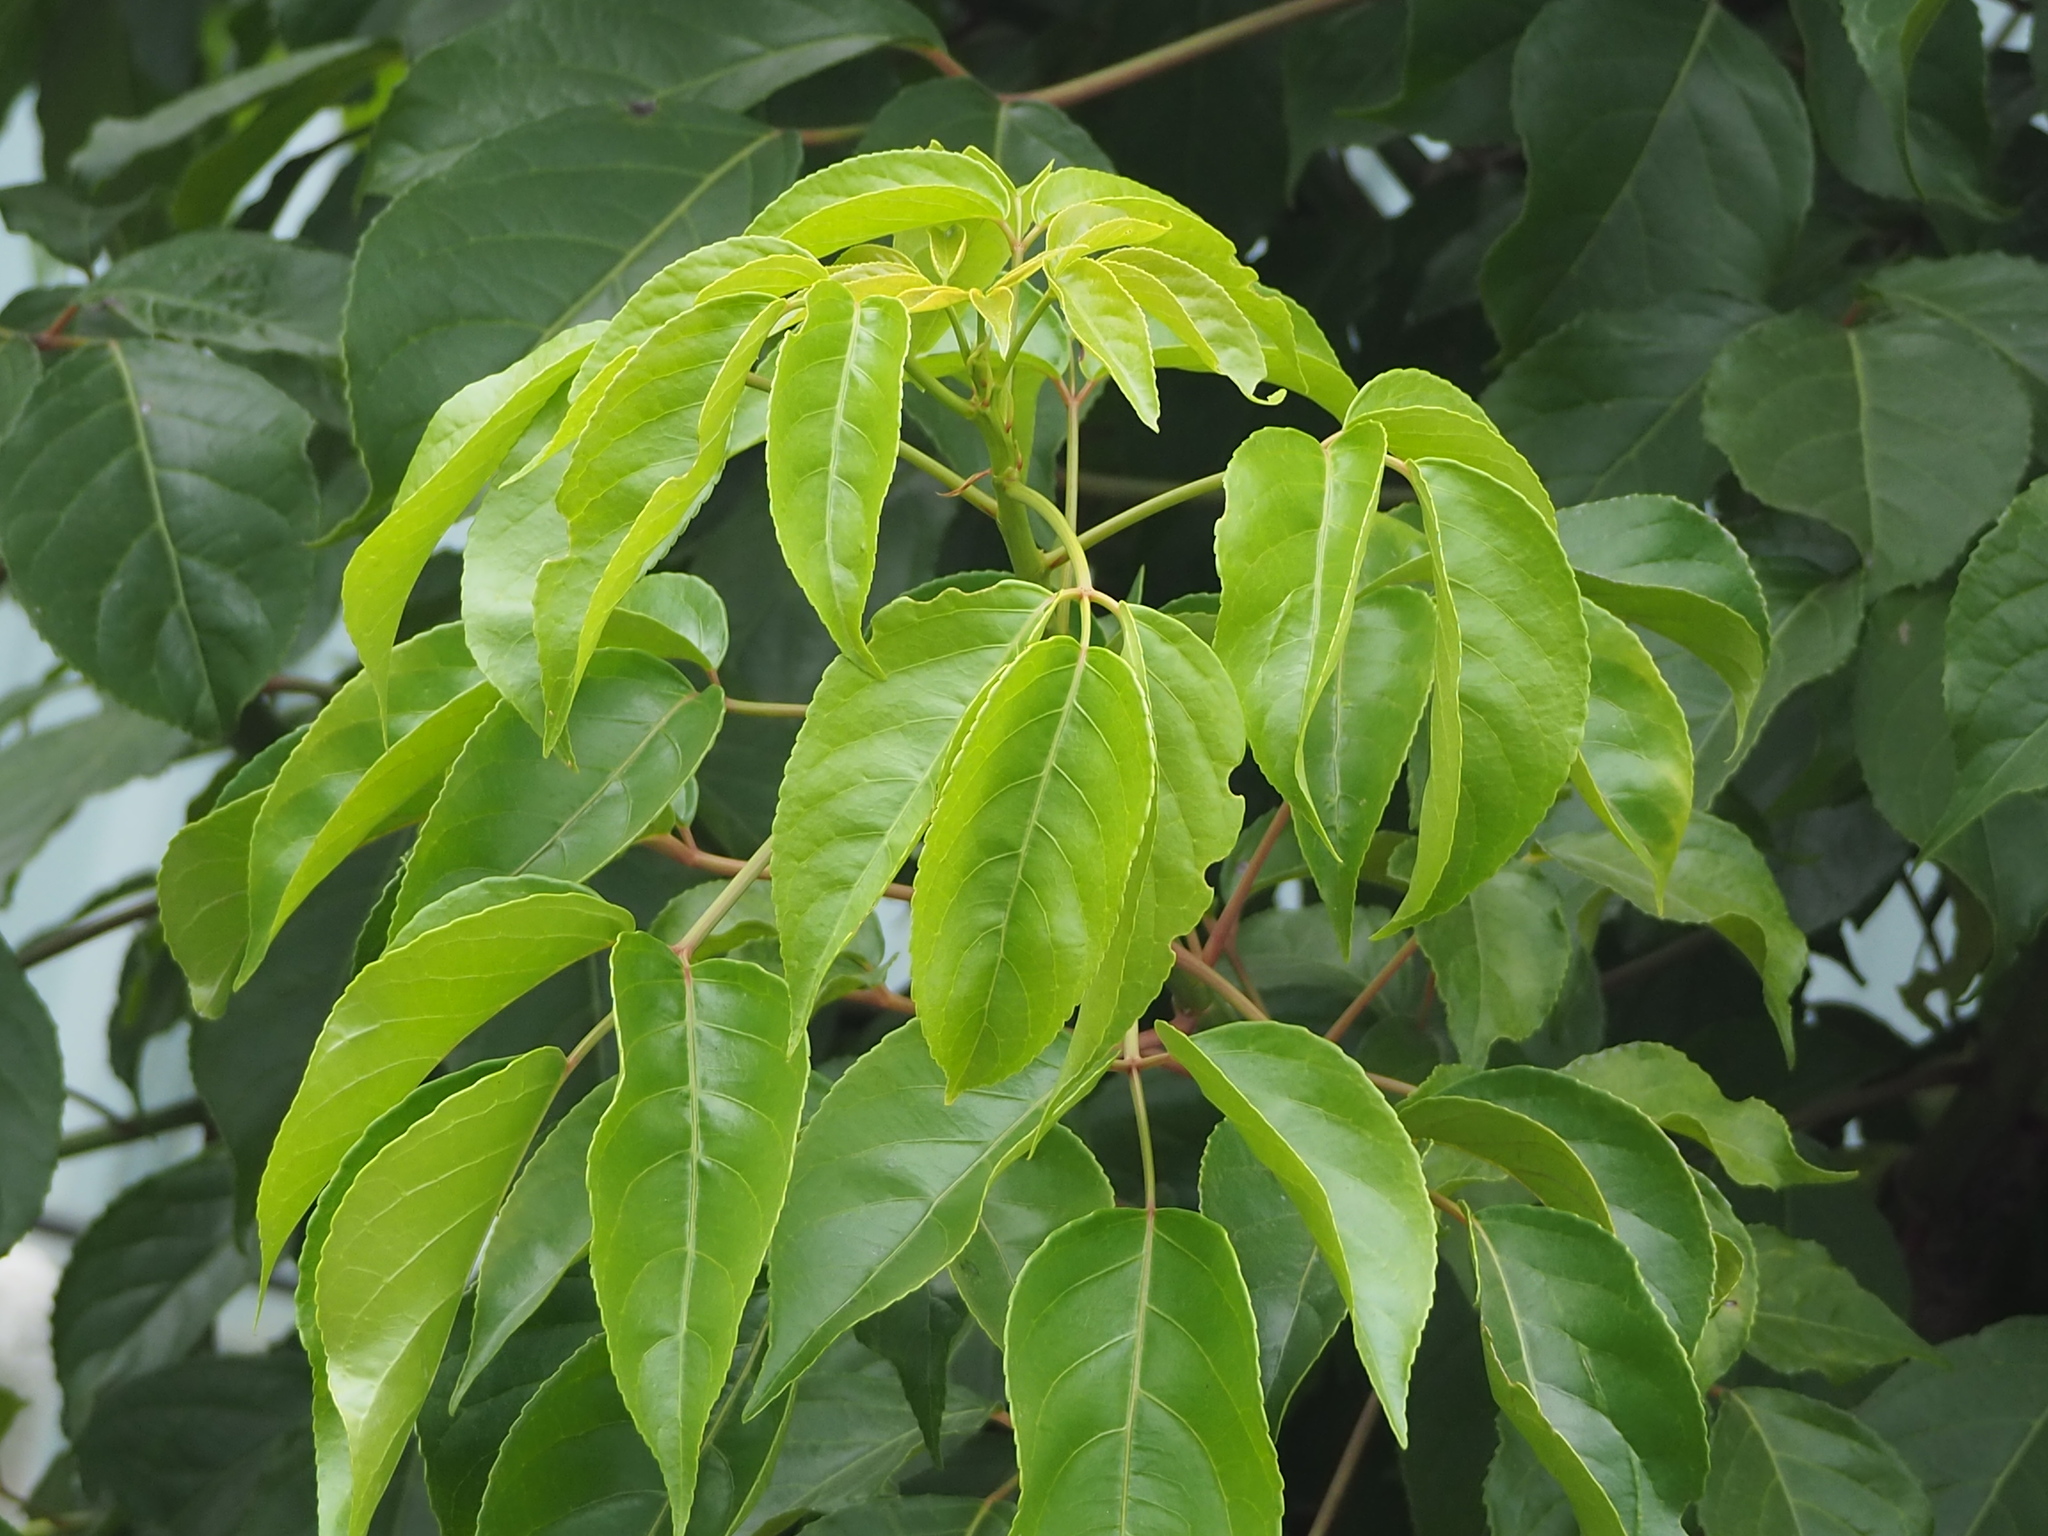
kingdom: Plantae
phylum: Tracheophyta
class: Magnoliopsida
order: Malpighiales
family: Phyllanthaceae
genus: Bischofia
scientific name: Bischofia javanica
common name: Javanese bishopwood
